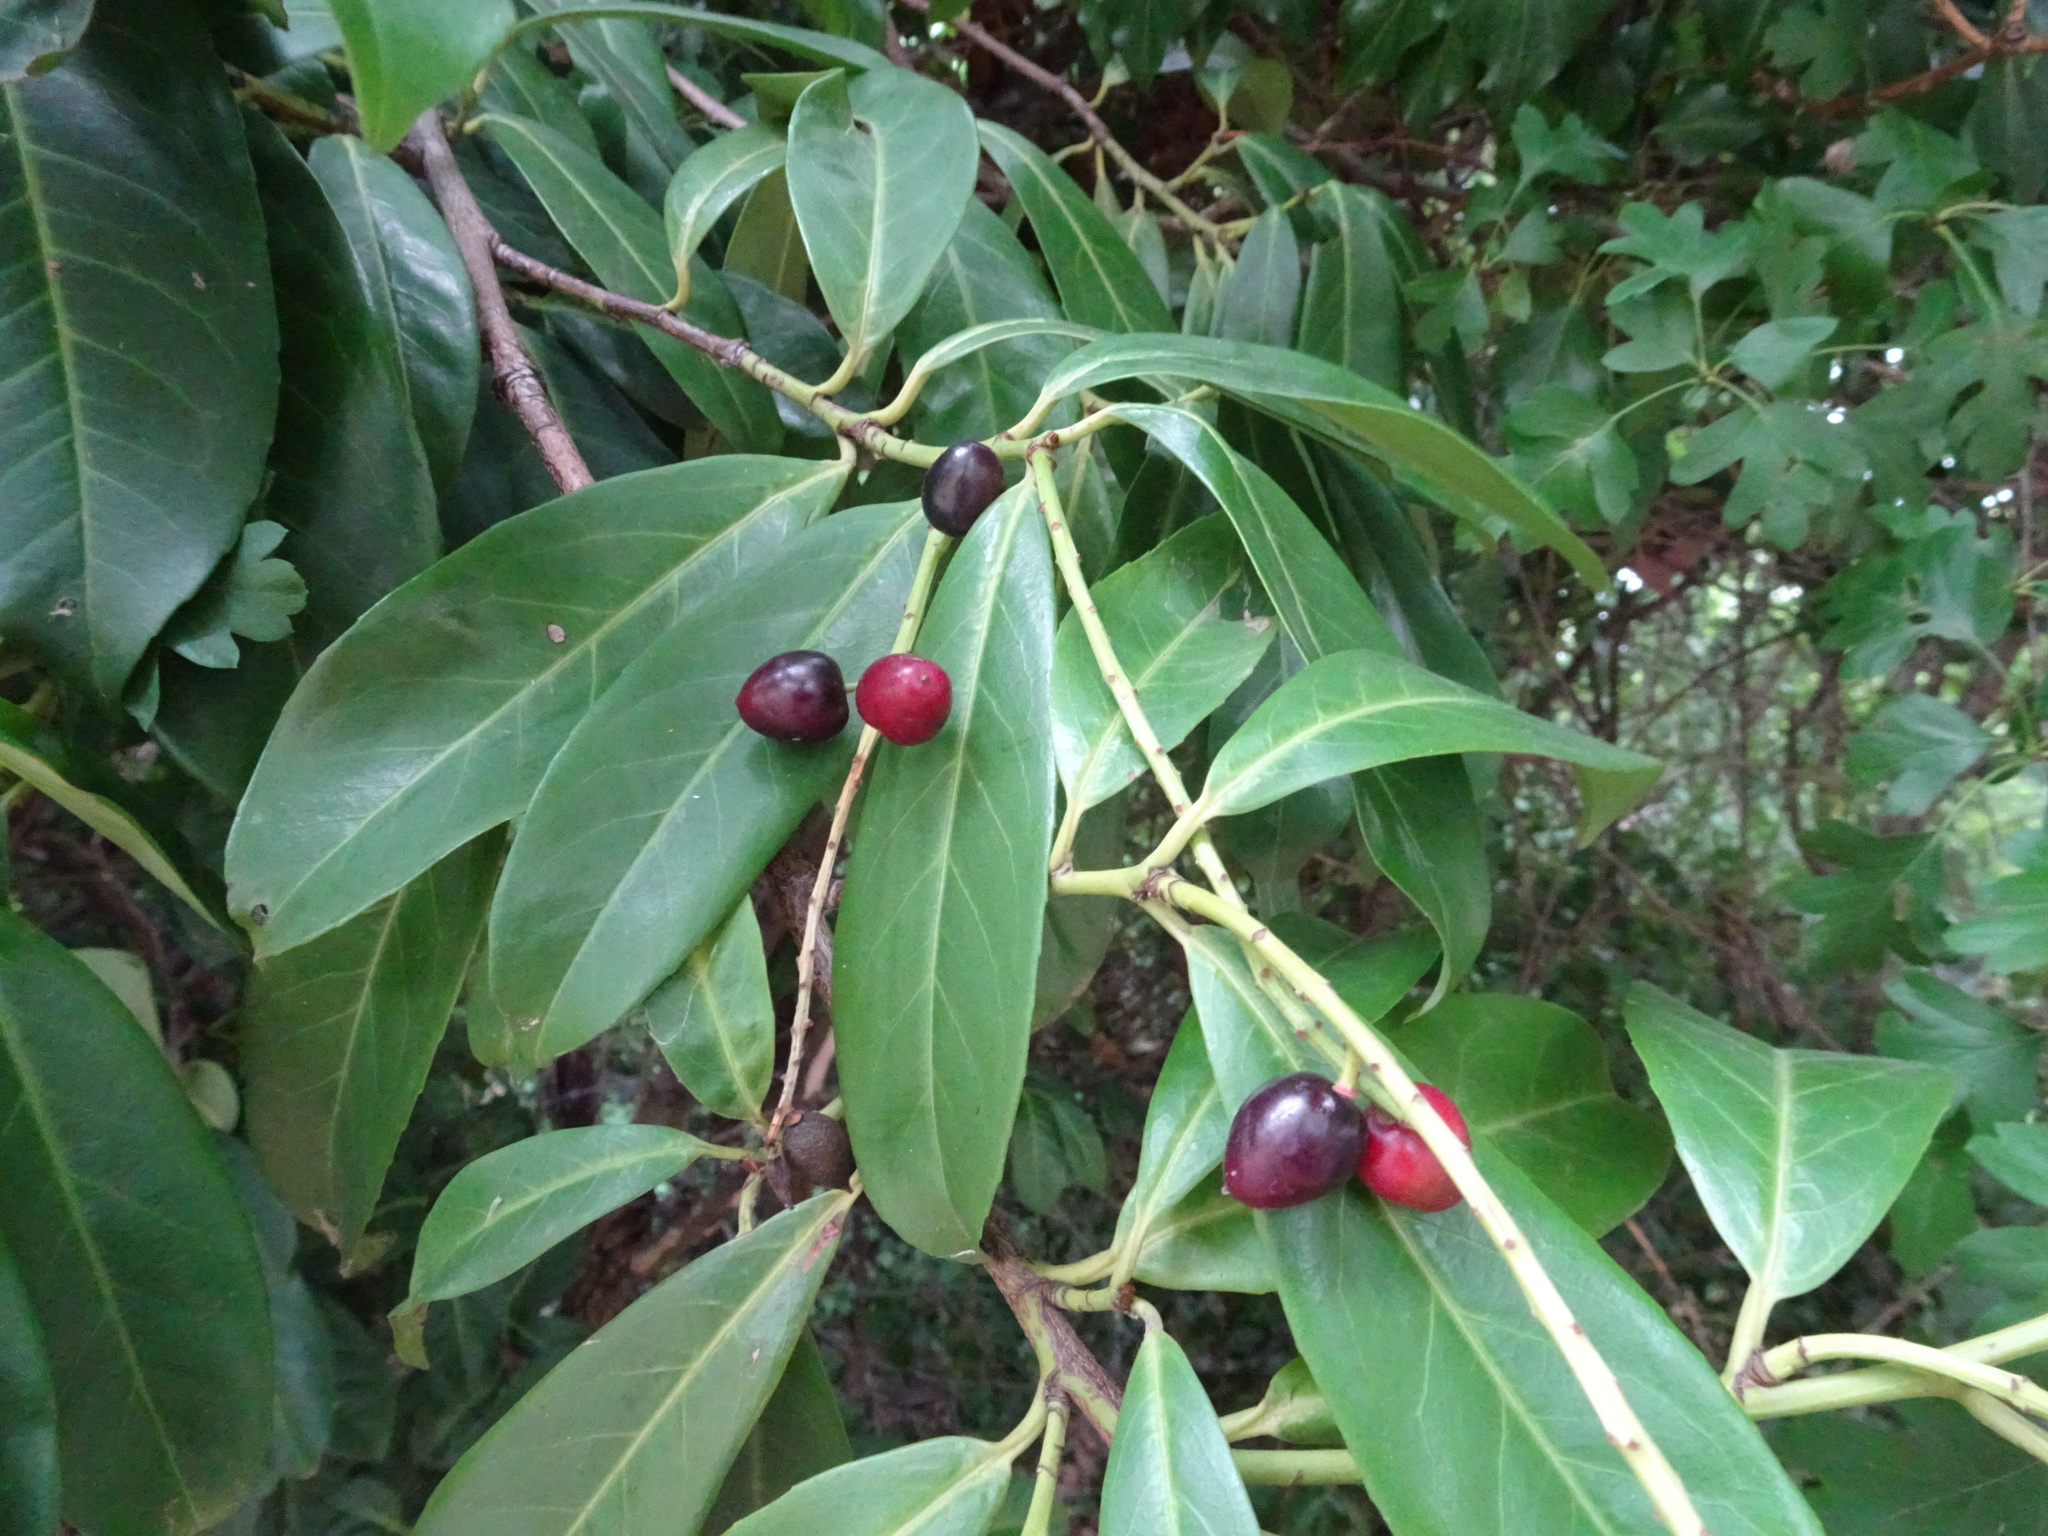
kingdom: Plantae
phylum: Tracheophyta
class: Magnoliopsida
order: Rosales
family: Rosaceae
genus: Prunus
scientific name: Prunus laurocerasus
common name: Cherry laurel
